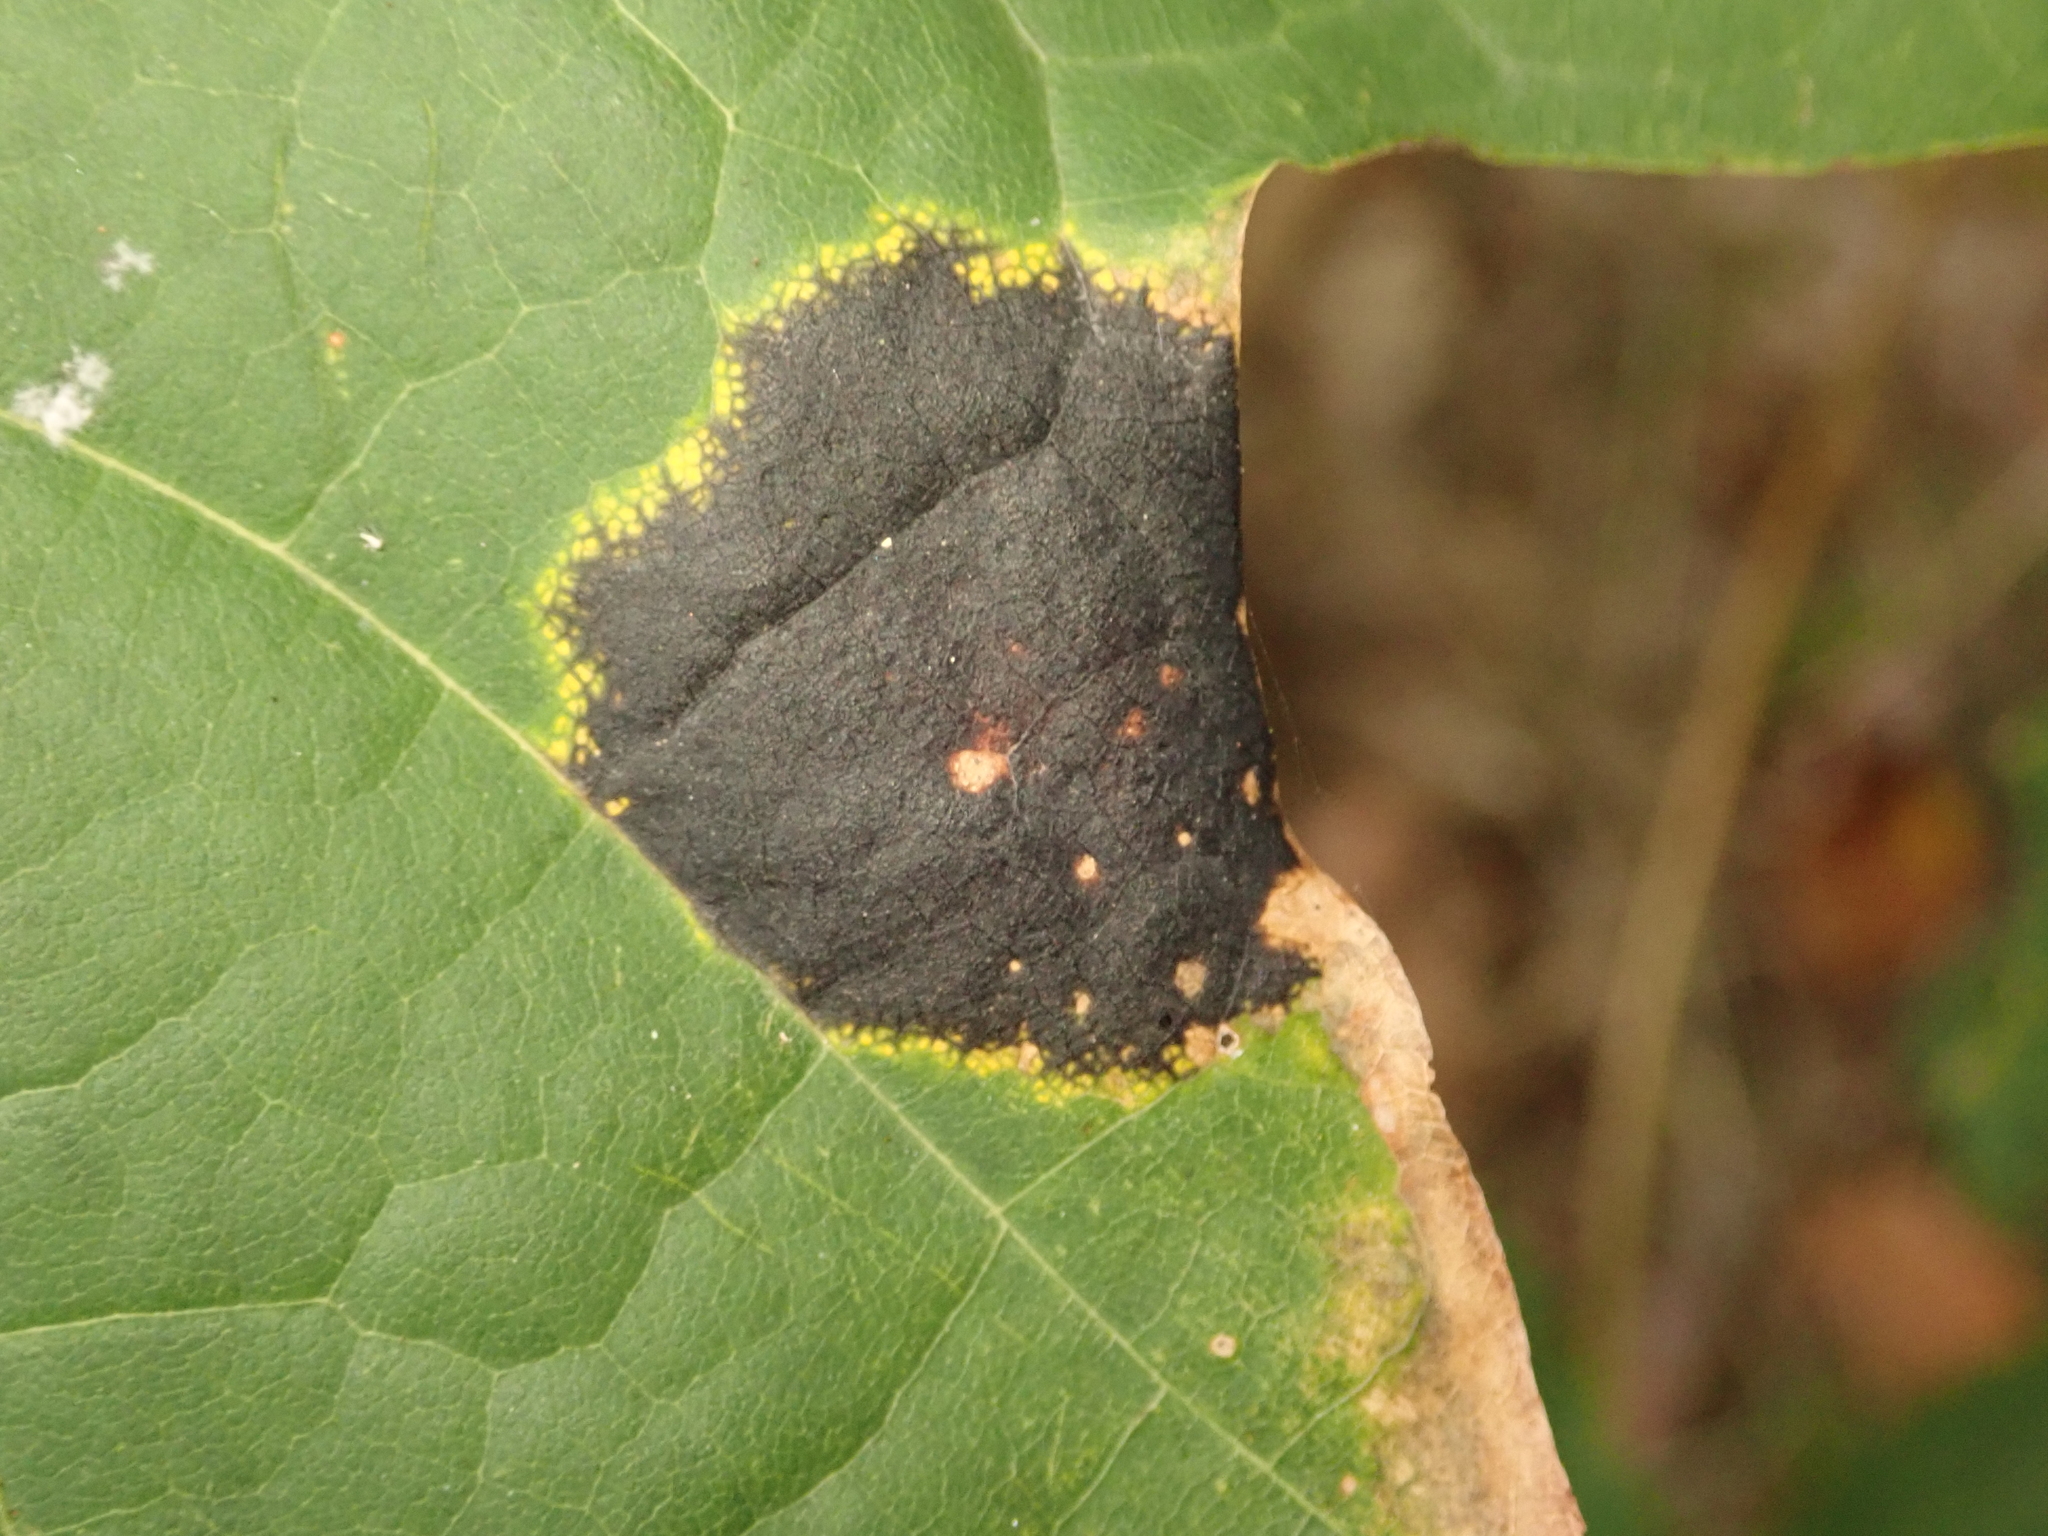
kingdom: Fungi
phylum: Ascomycota
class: Leotiomycetes
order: Rhytismatales
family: Rhytismataceae
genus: Rhytisma
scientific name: Rhytisma acerinum
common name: European tar spot
